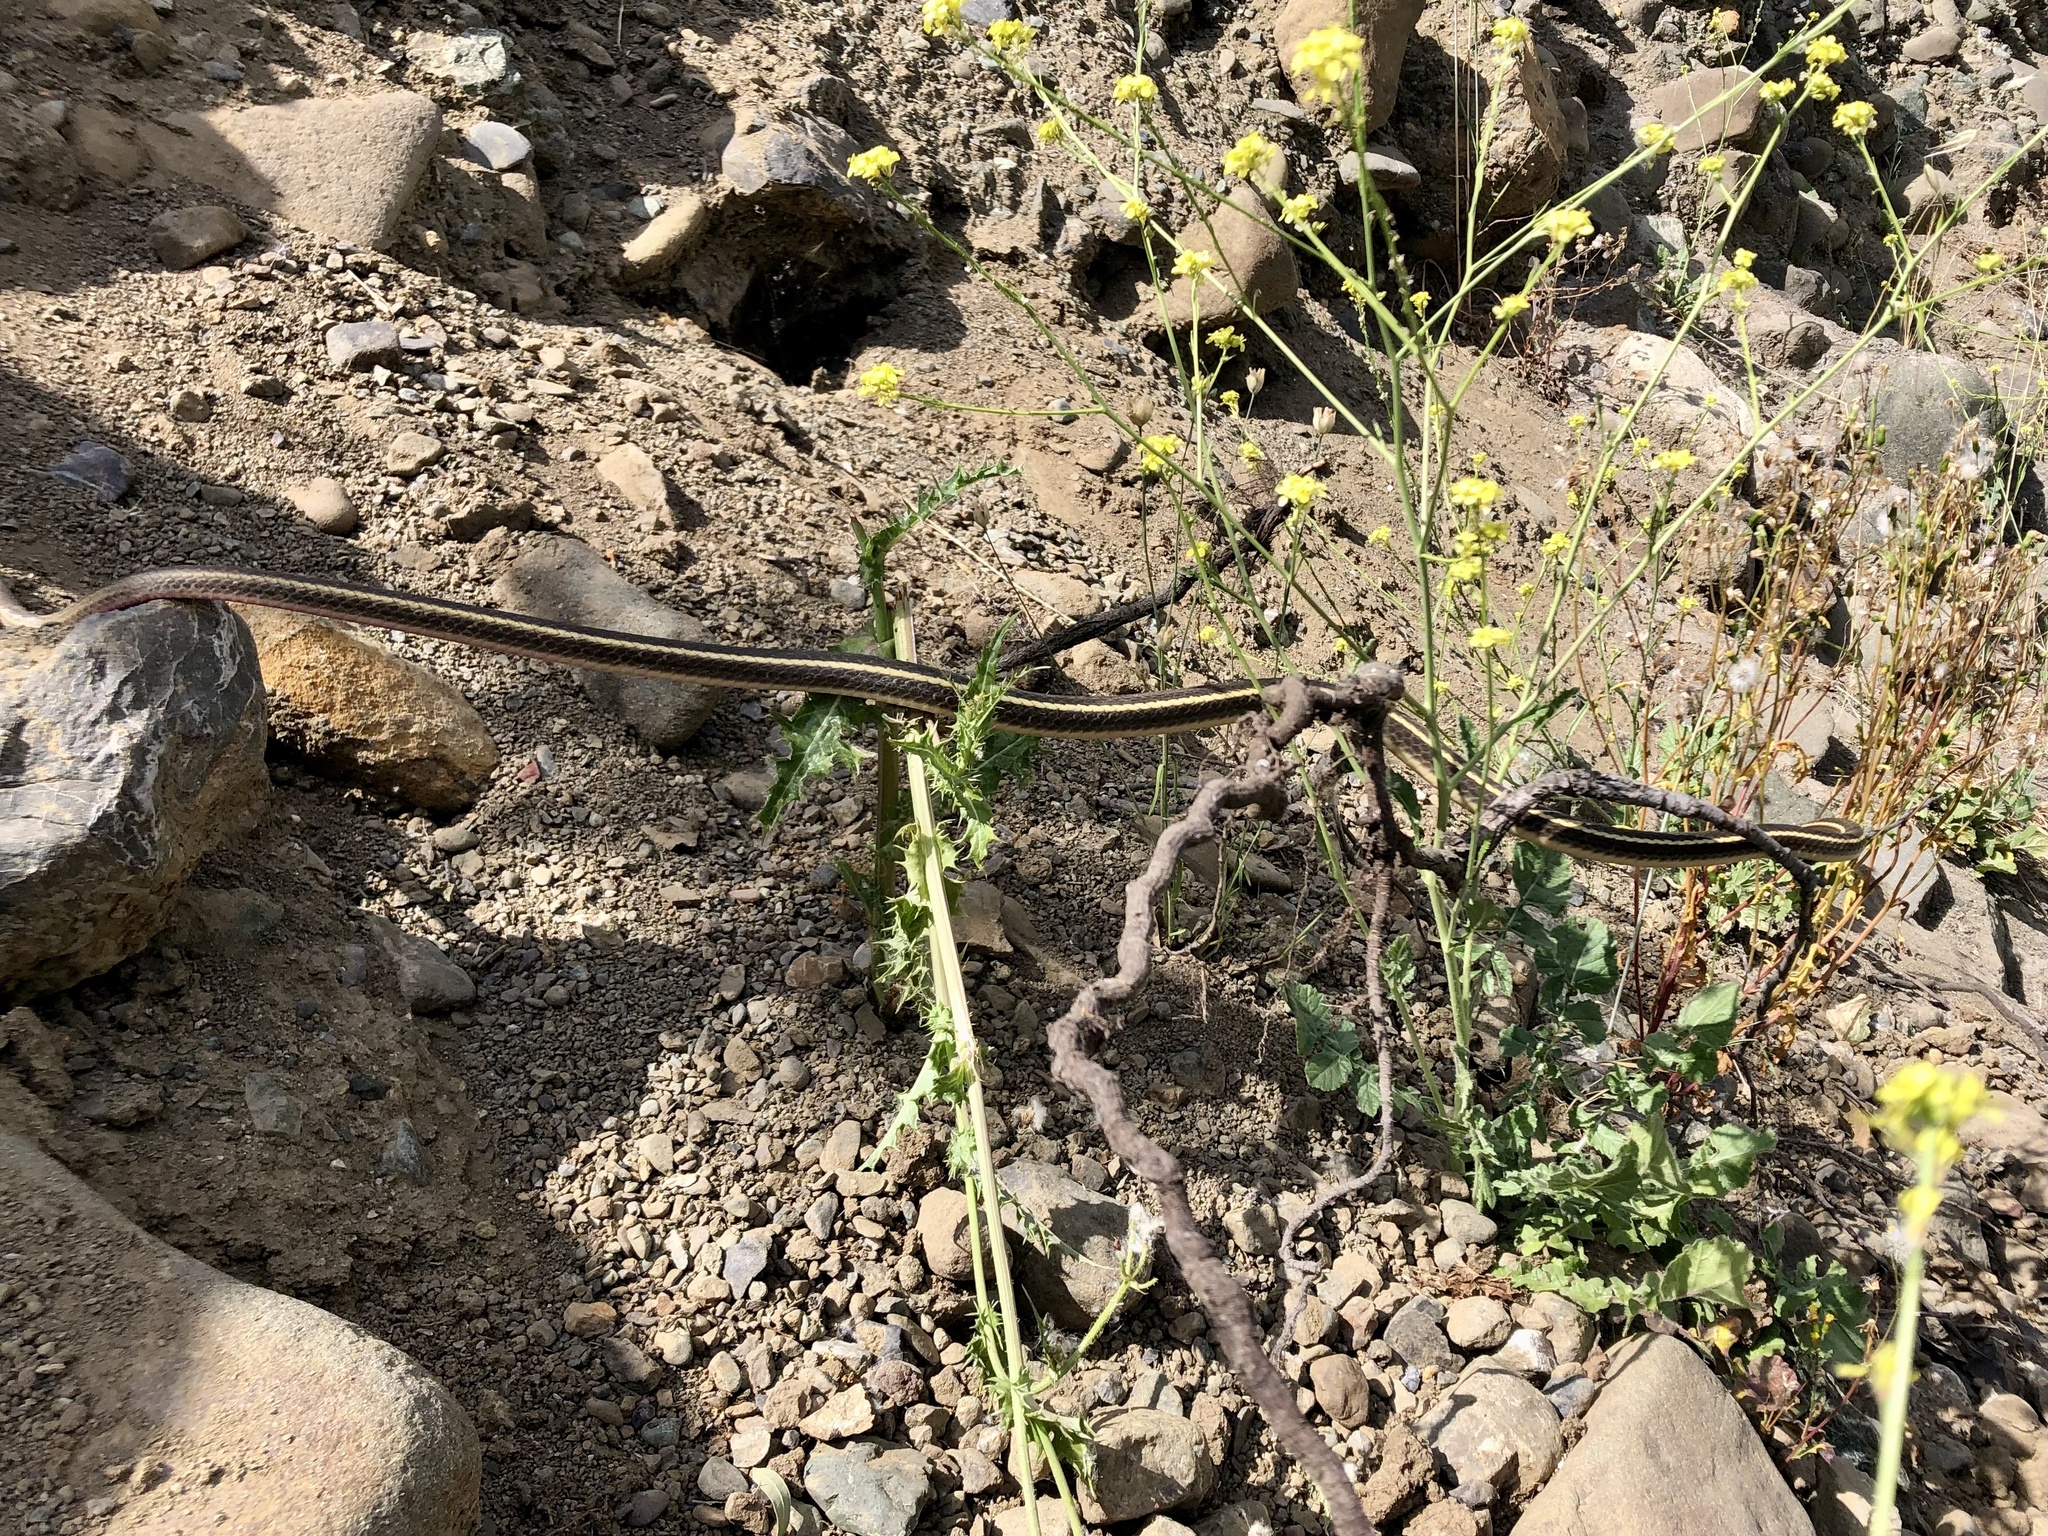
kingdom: Animalia
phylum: Chordata
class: Squamata
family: Colubridae
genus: Masticophis
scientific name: Masticophis lateralis
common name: Striped racer
